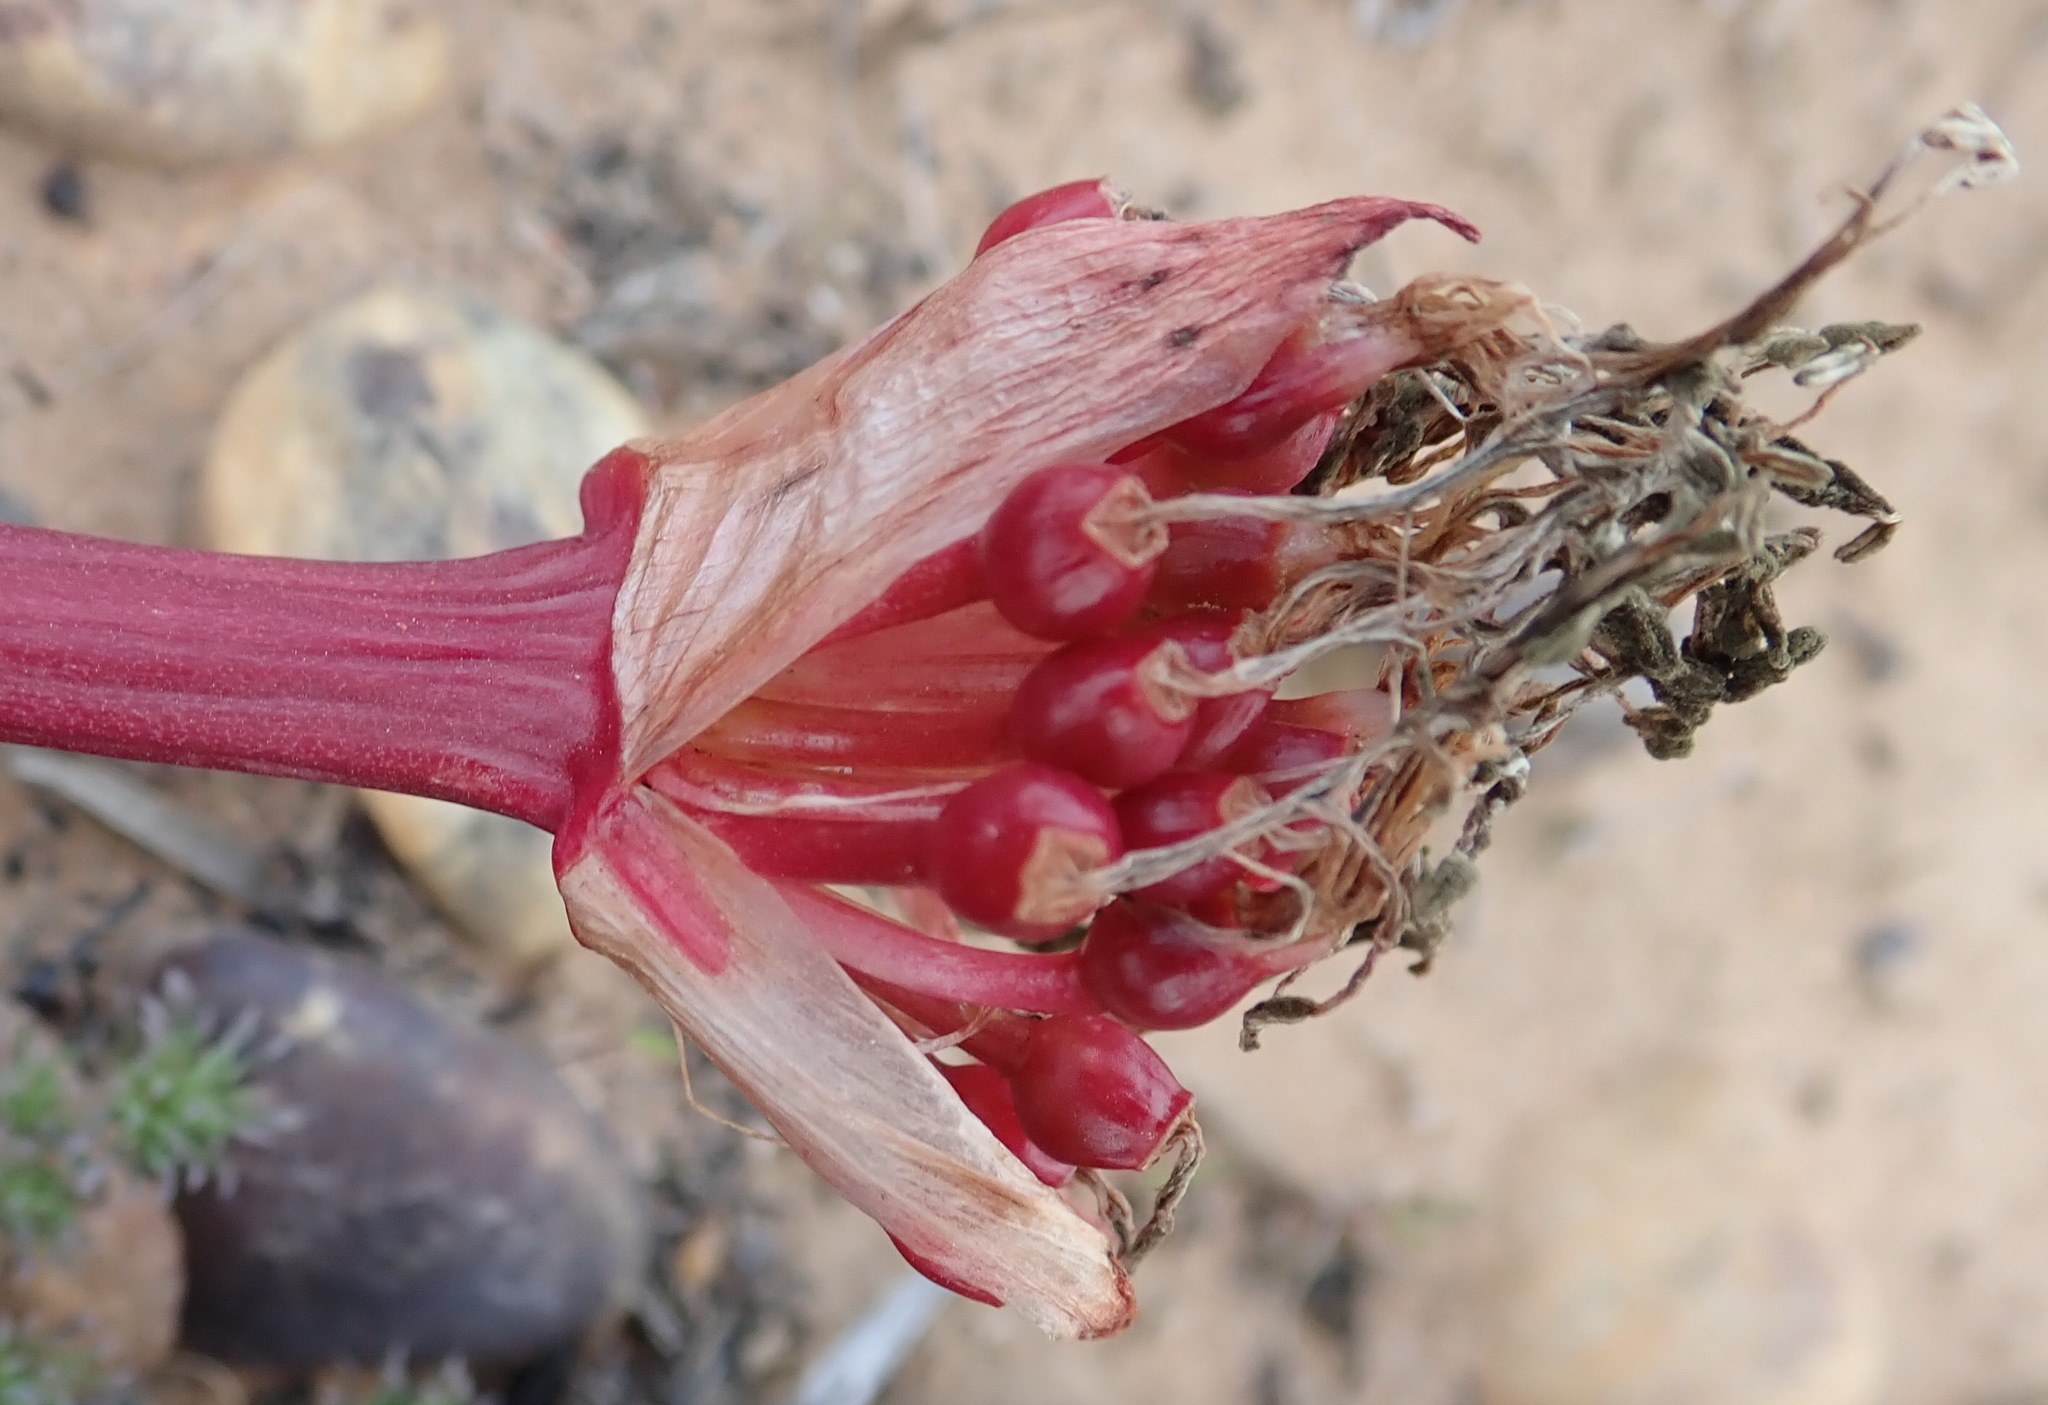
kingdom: Plantae
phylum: Tracheophyta
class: Liliopsida
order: Asparagales
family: Amaryllidaceae
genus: Haemanthus
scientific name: Haemanthus sanguineus
